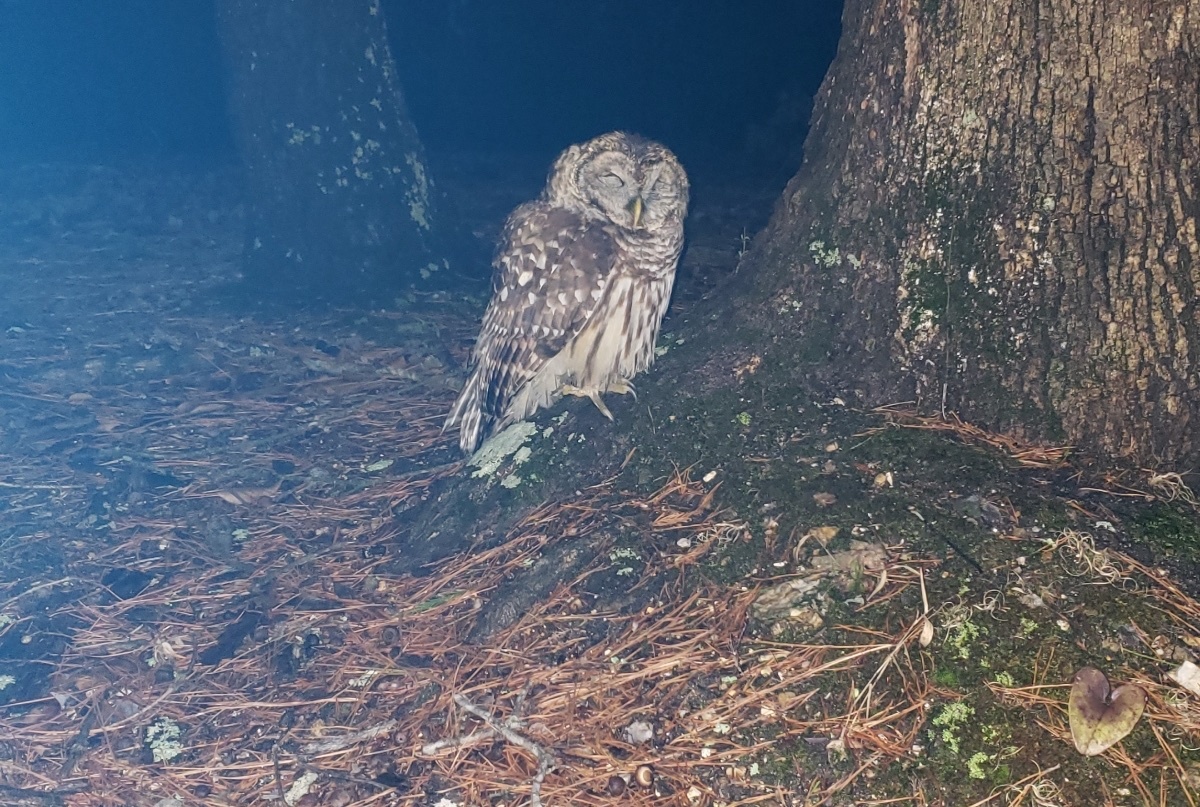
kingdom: Animalia
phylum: Chordata
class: Aves
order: Strigiformes
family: Strigidae
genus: Strix
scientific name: Strix varia
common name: Barred owl
